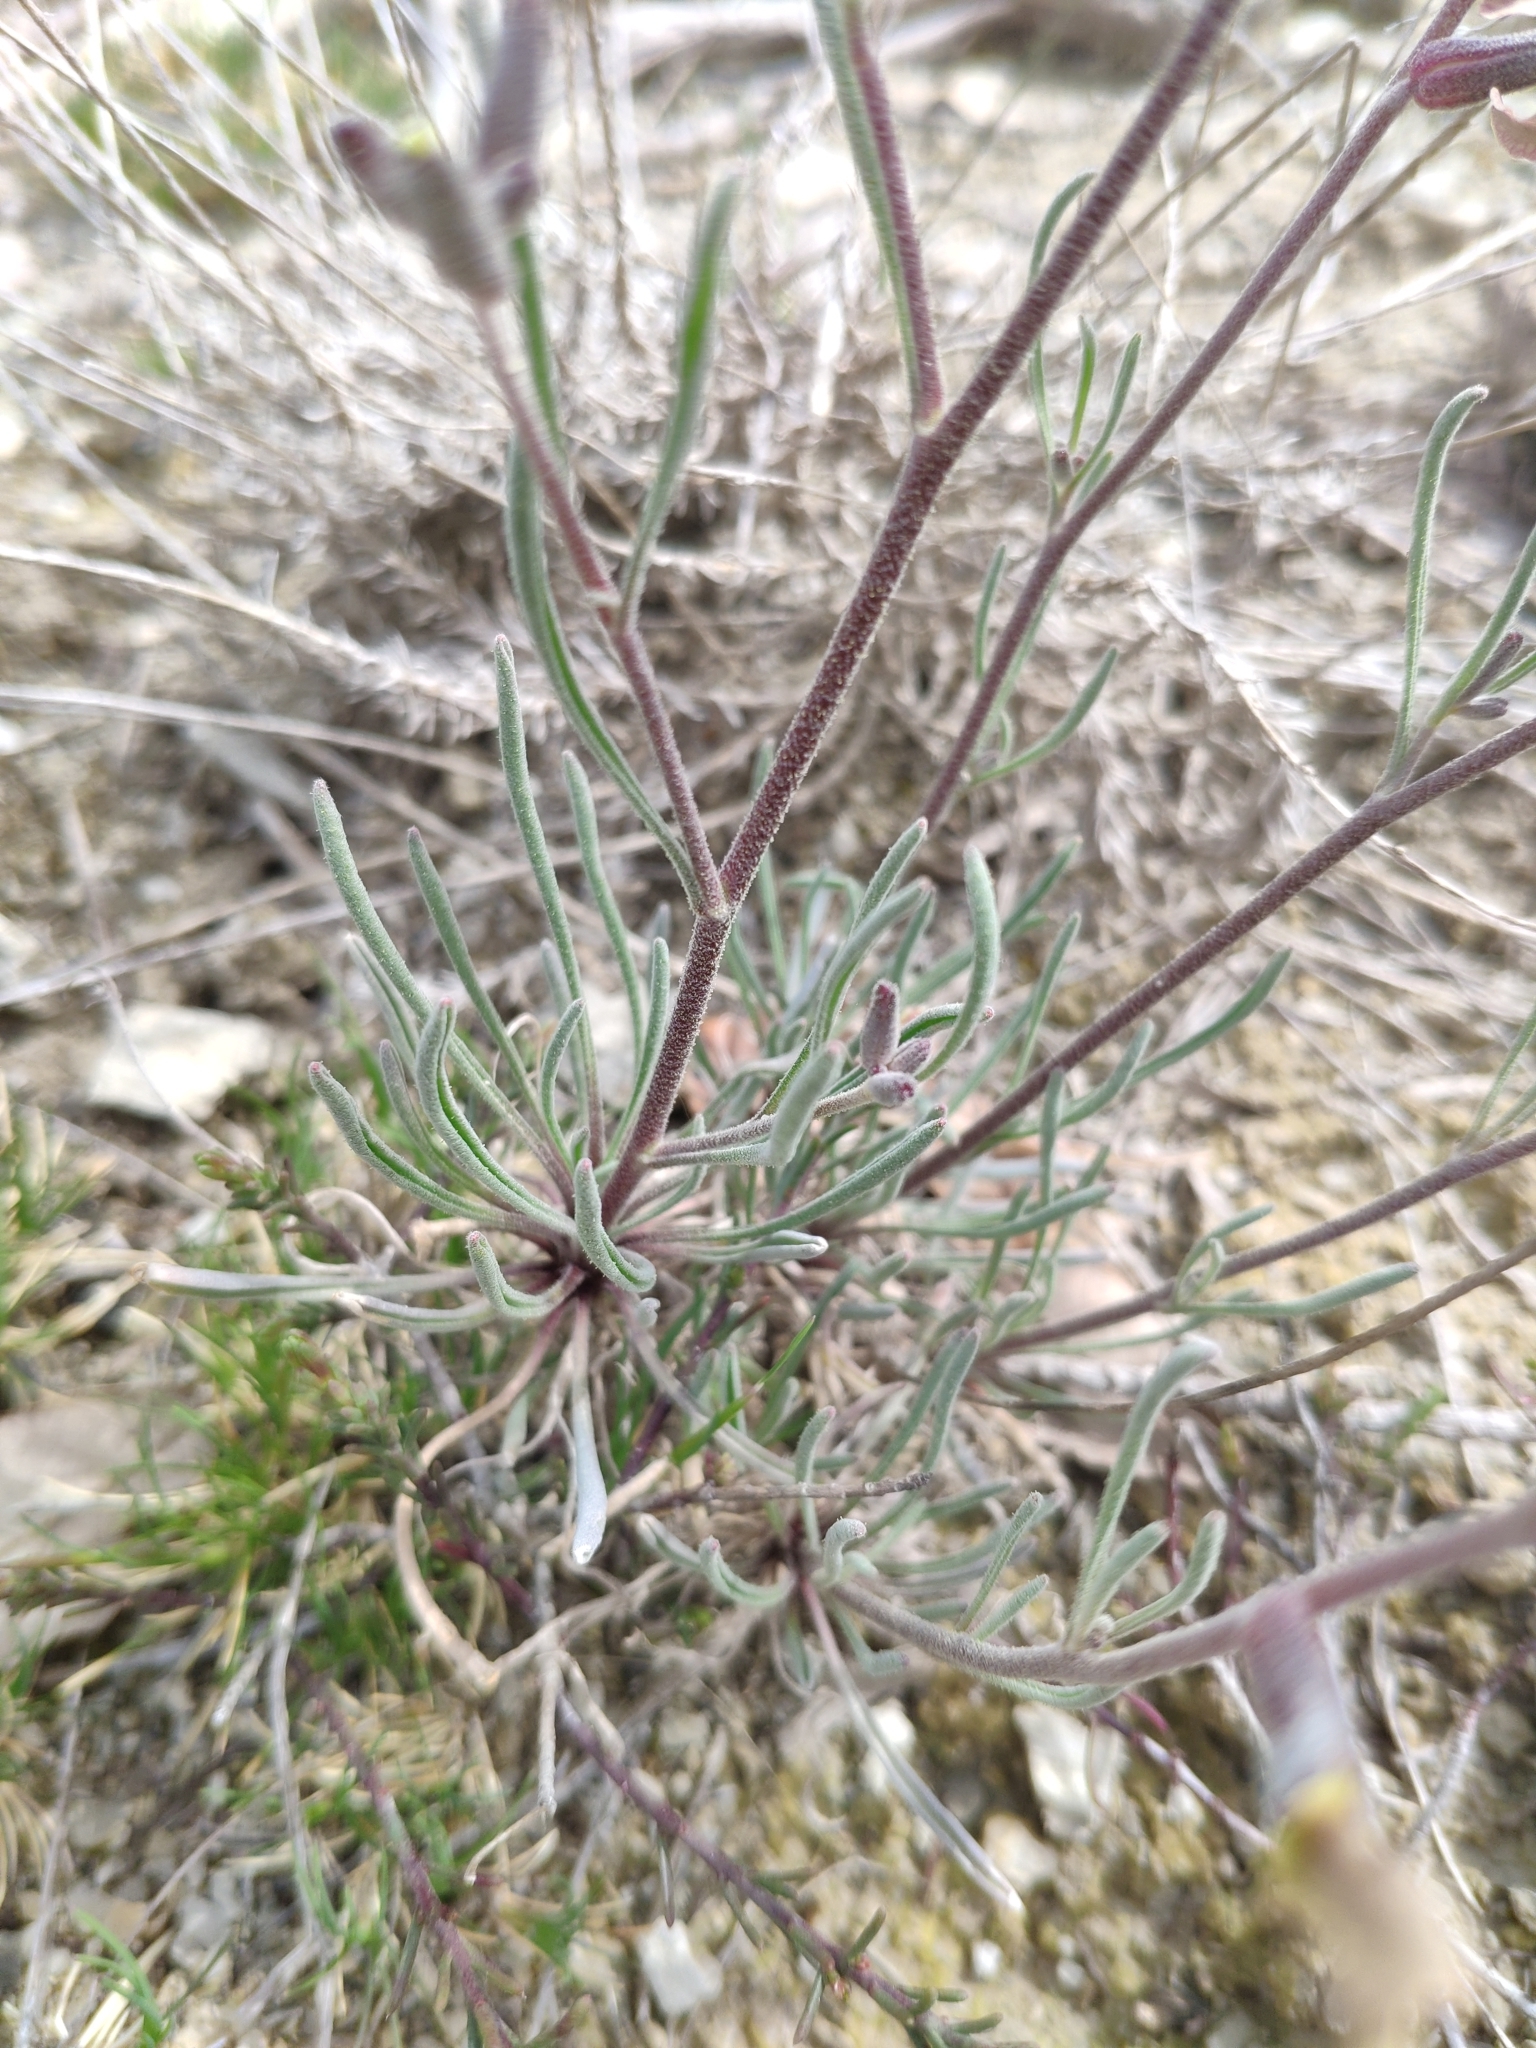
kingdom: Plantae
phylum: Tracheophyta
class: Magnoliopsida
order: Brassicales
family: Brassicaceae
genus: Matthiola
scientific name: Matthiola fruticulosa
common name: Sad stock
